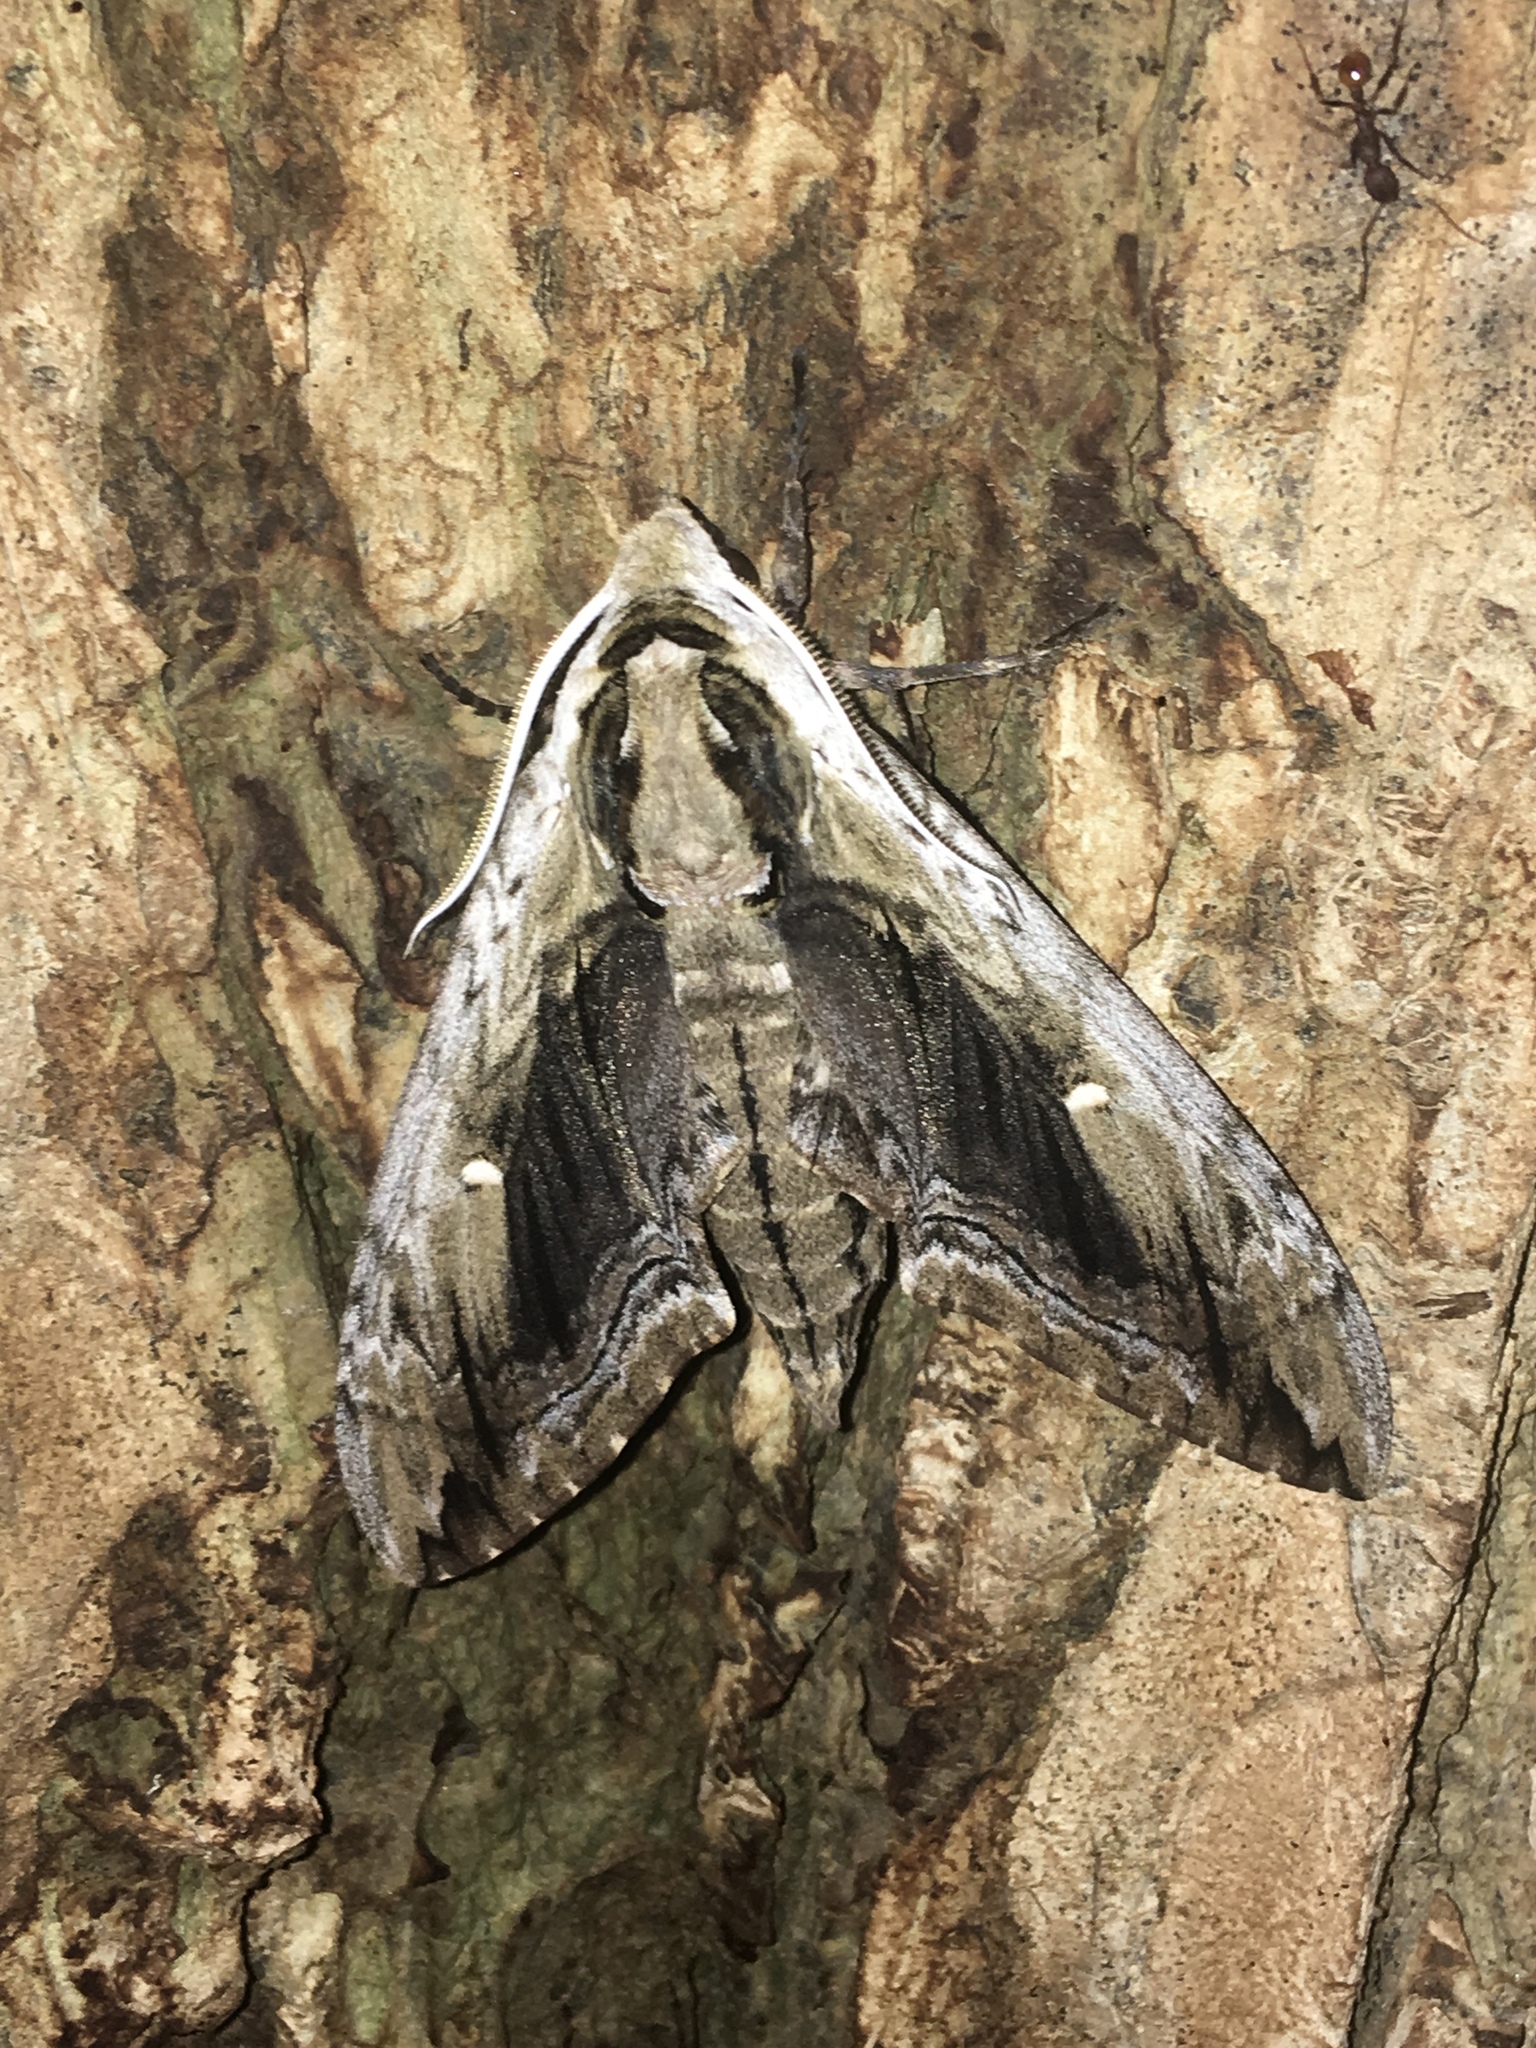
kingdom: Animalia
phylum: Arthropoda
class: Insecta
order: Lepidoptera
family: Sphingidae
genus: Ceratomia
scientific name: Ceratomia amyntor
